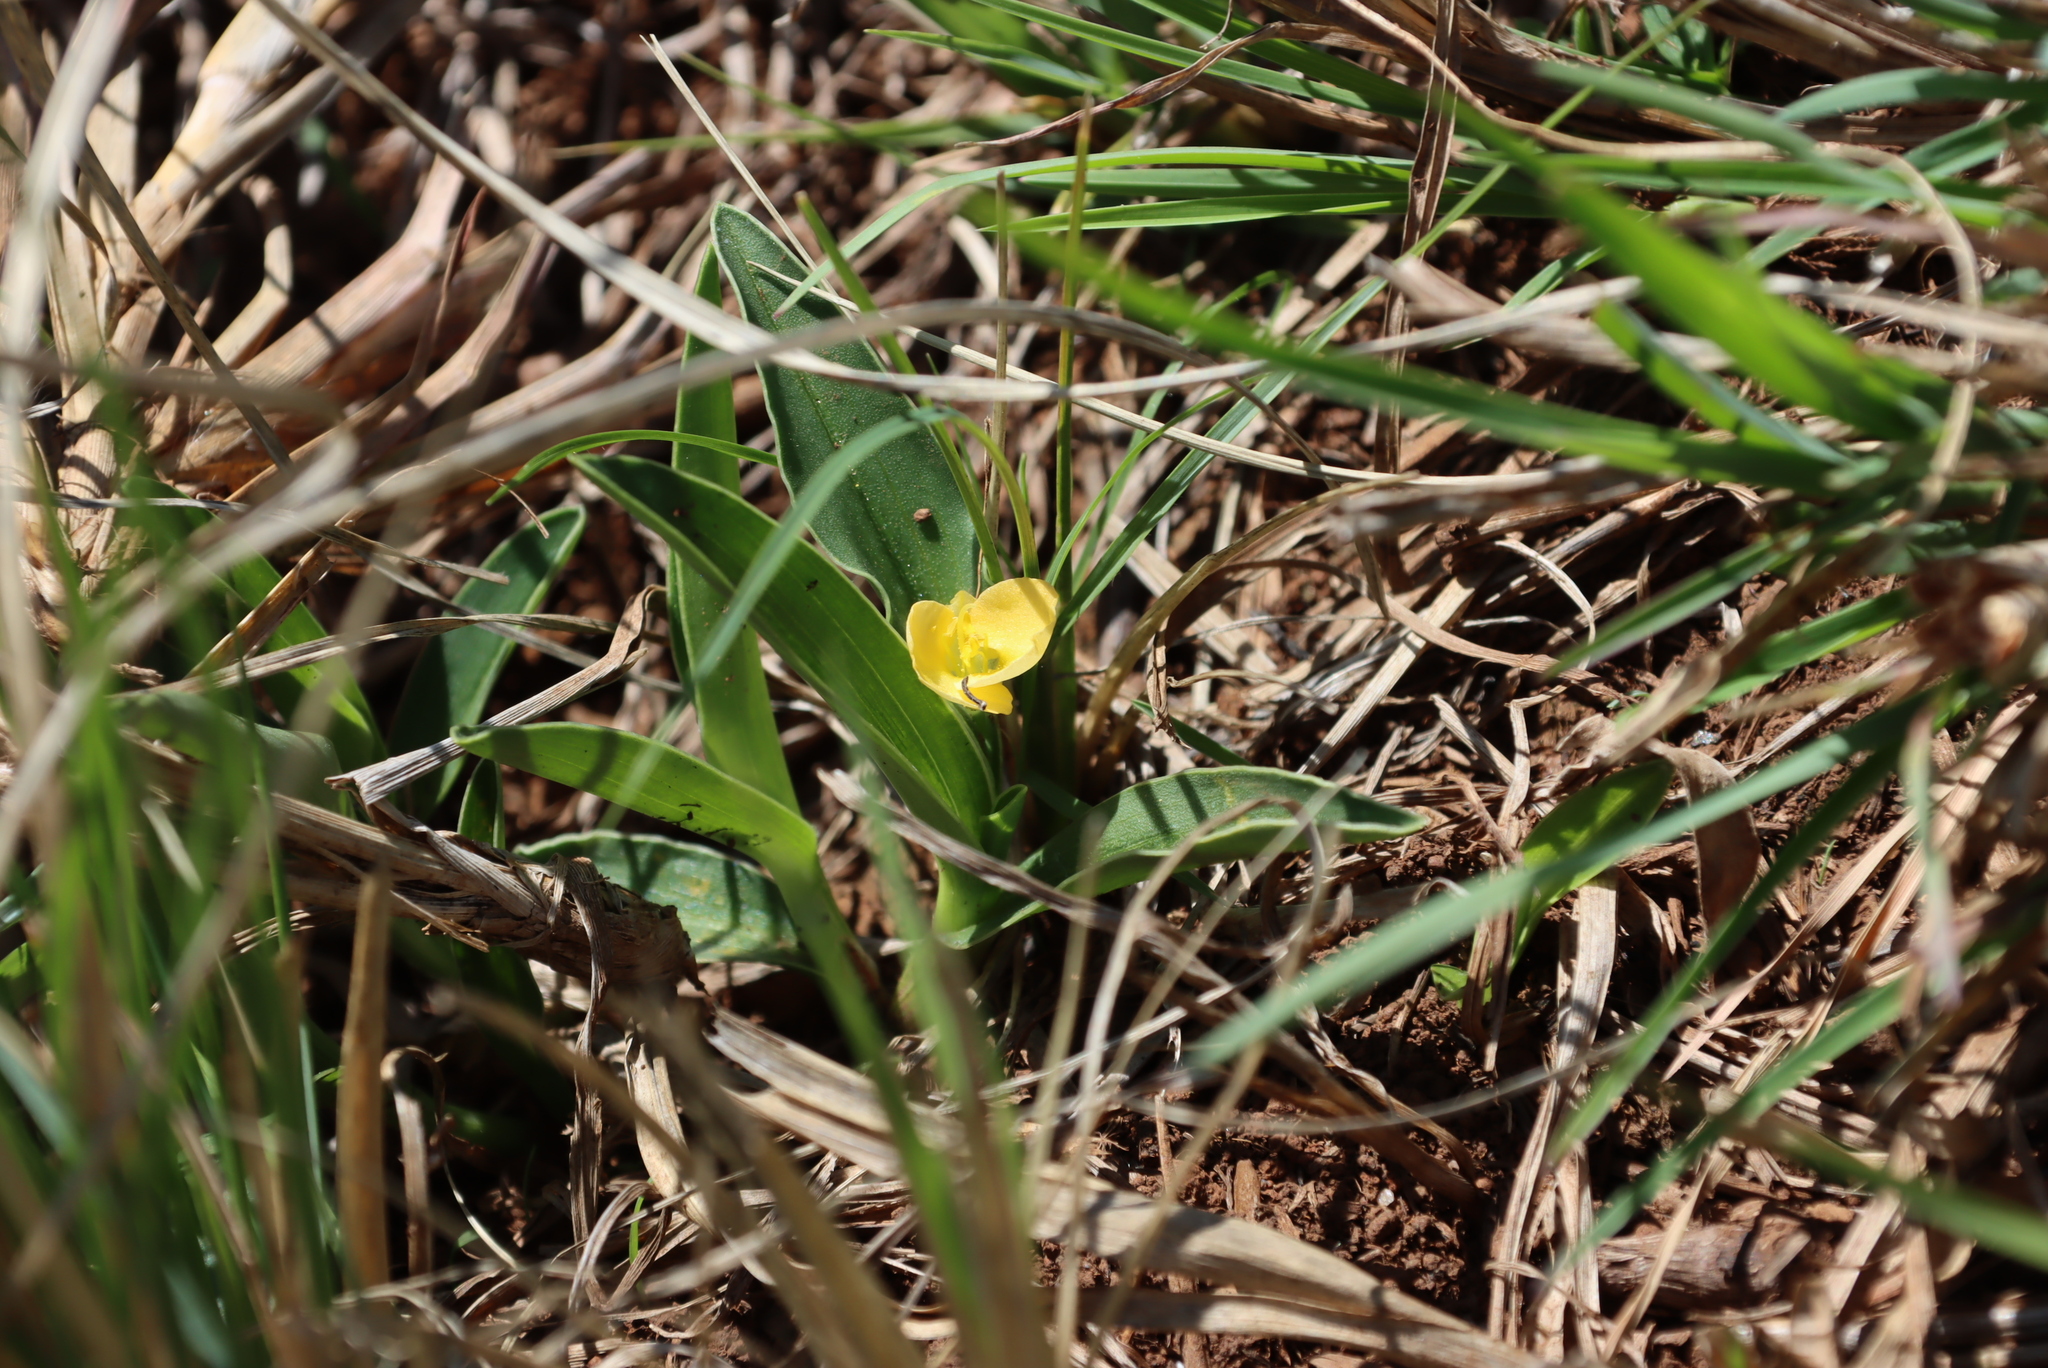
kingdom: Plantae
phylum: Tracheophyta
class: Liliopsida
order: Commelinales
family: Commelinaceae
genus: Commelina
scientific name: Commelina africana
